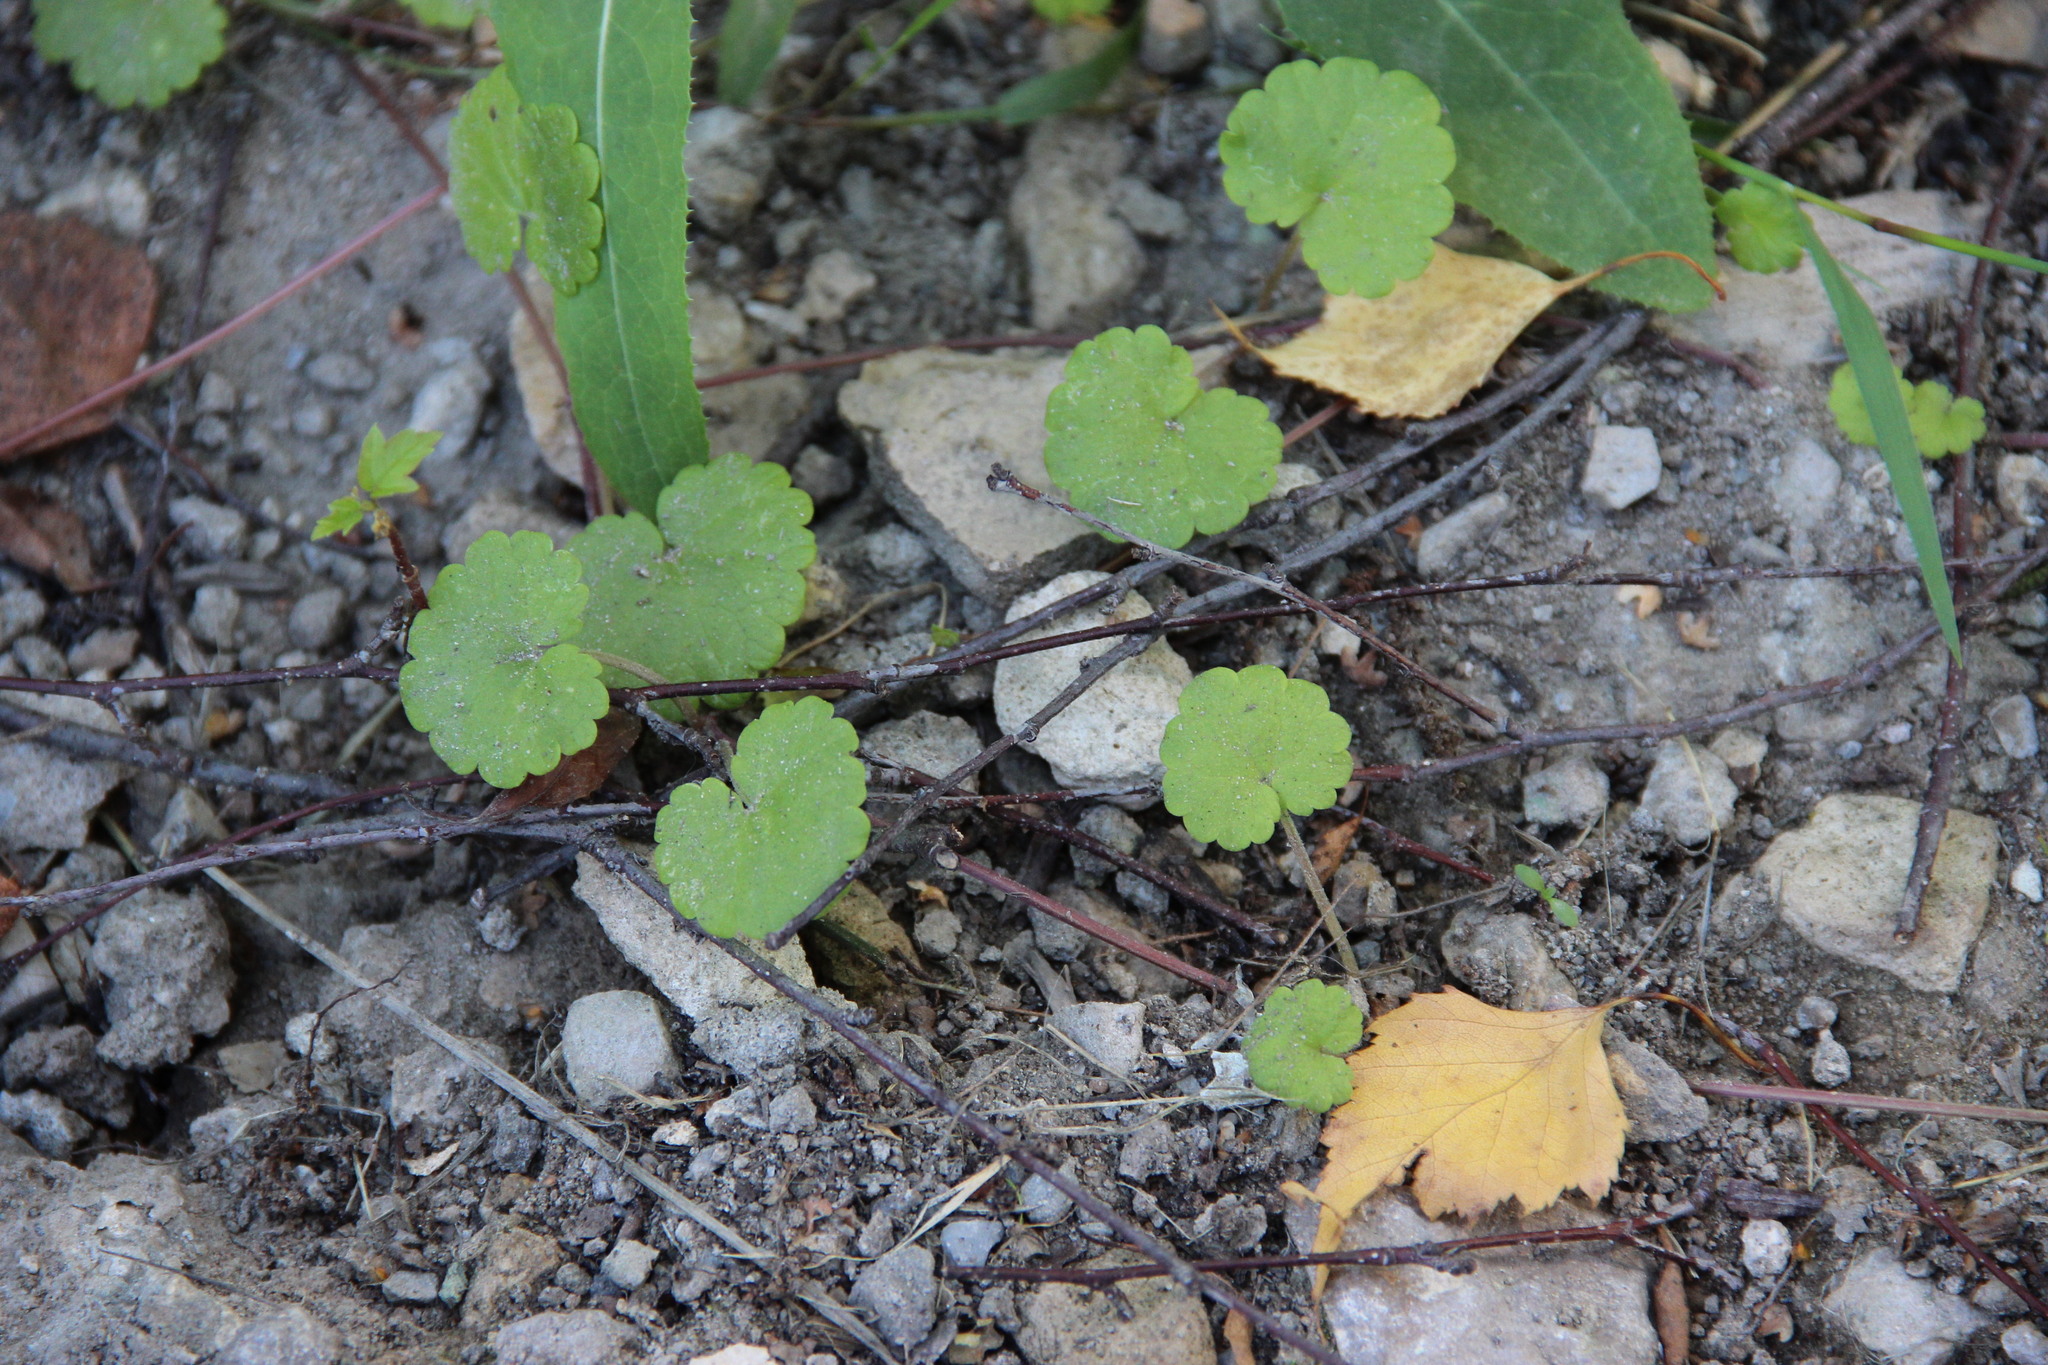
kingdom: Plantae
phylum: Tracheophyta
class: Magnoliopsida
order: Lamiales
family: Lamiaceae
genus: Glechoma
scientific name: Glechoma hederacea
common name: Ground ivy
